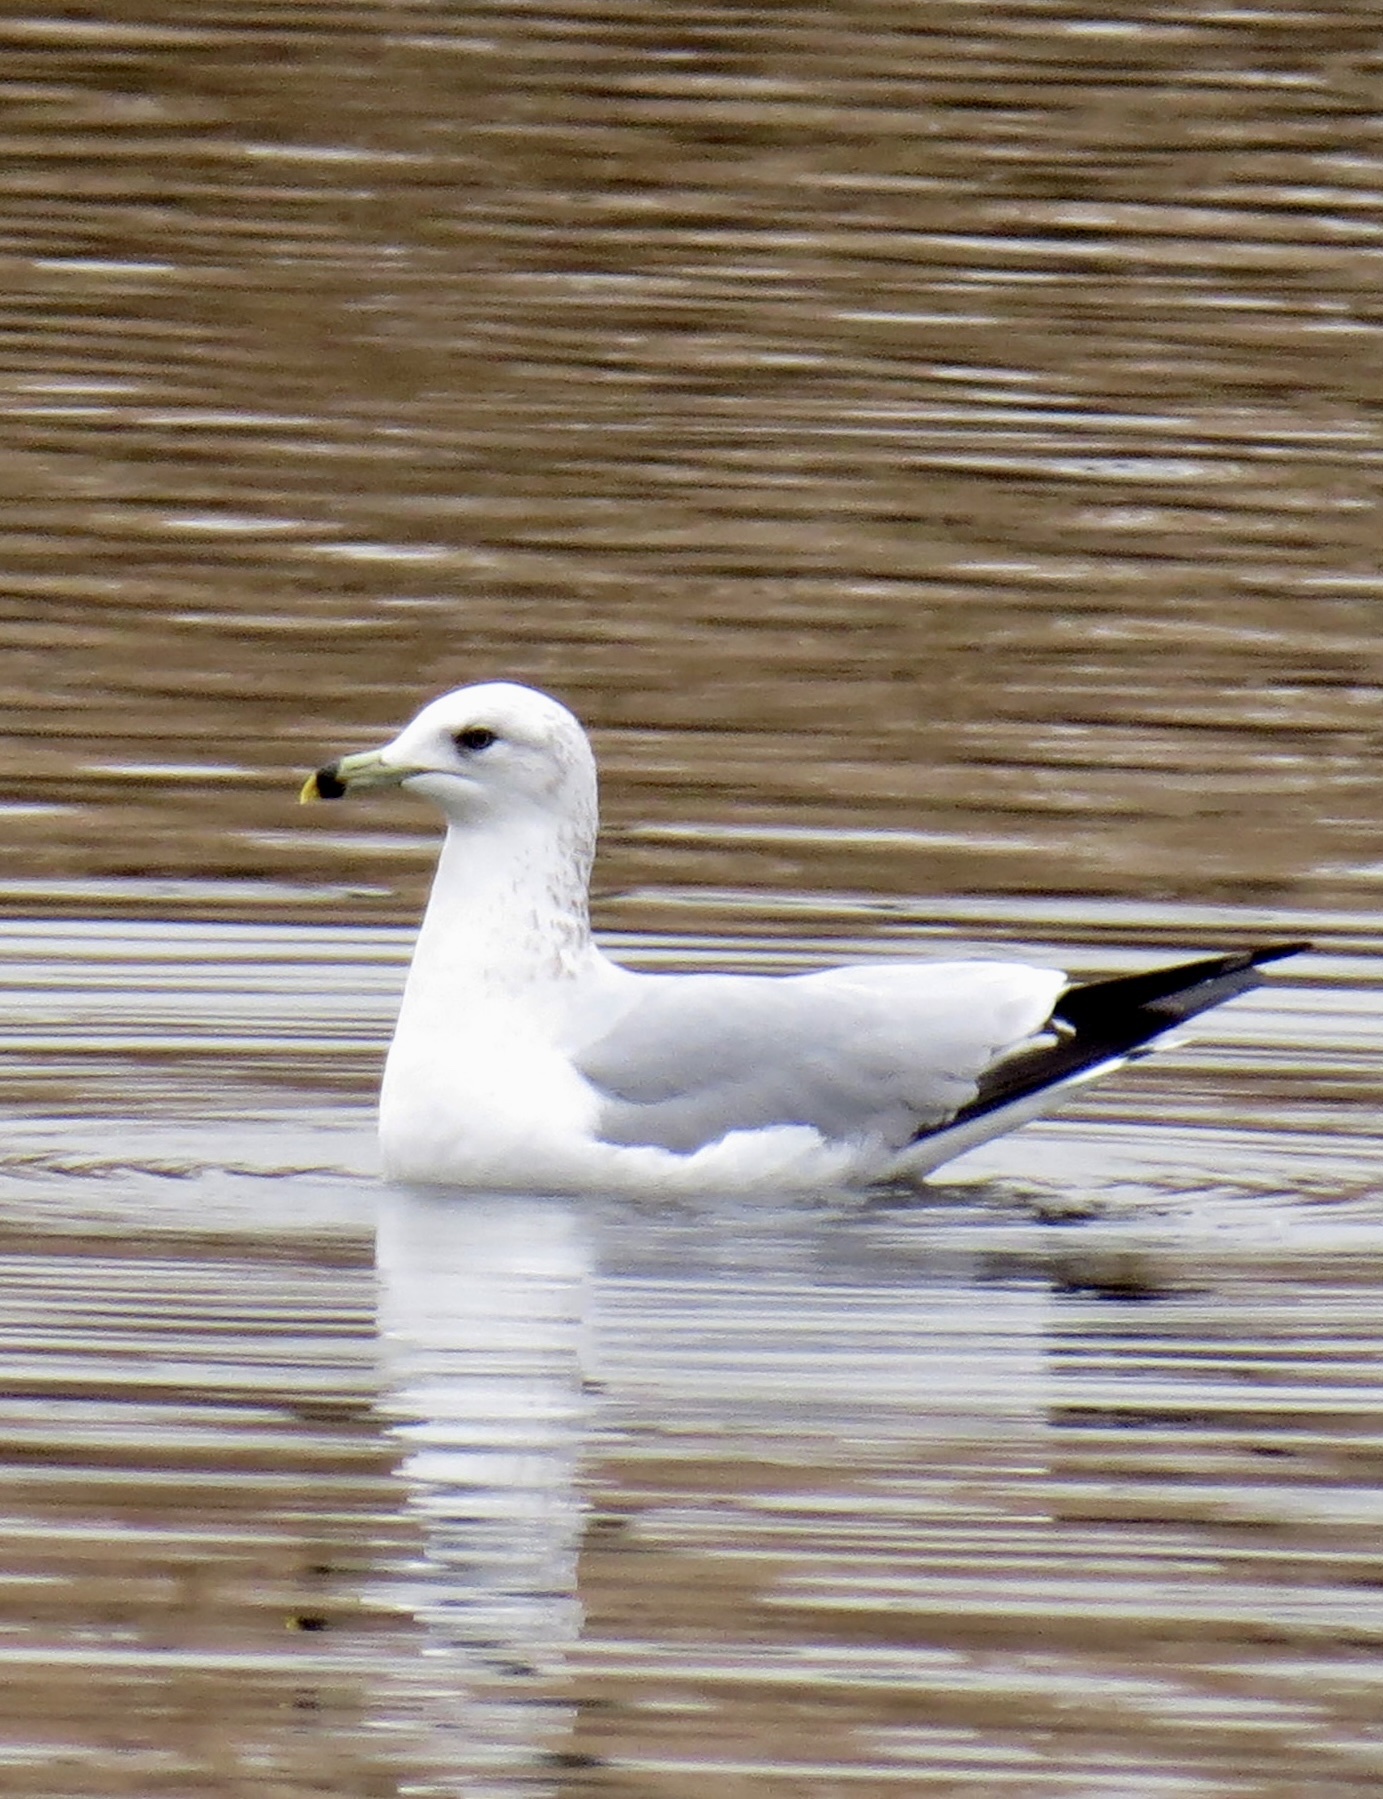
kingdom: Animalia
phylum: Chordata
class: Aves
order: Charadriiformes
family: Laridae
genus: Larus
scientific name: Larus delawarensis
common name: Ring-billed gull
